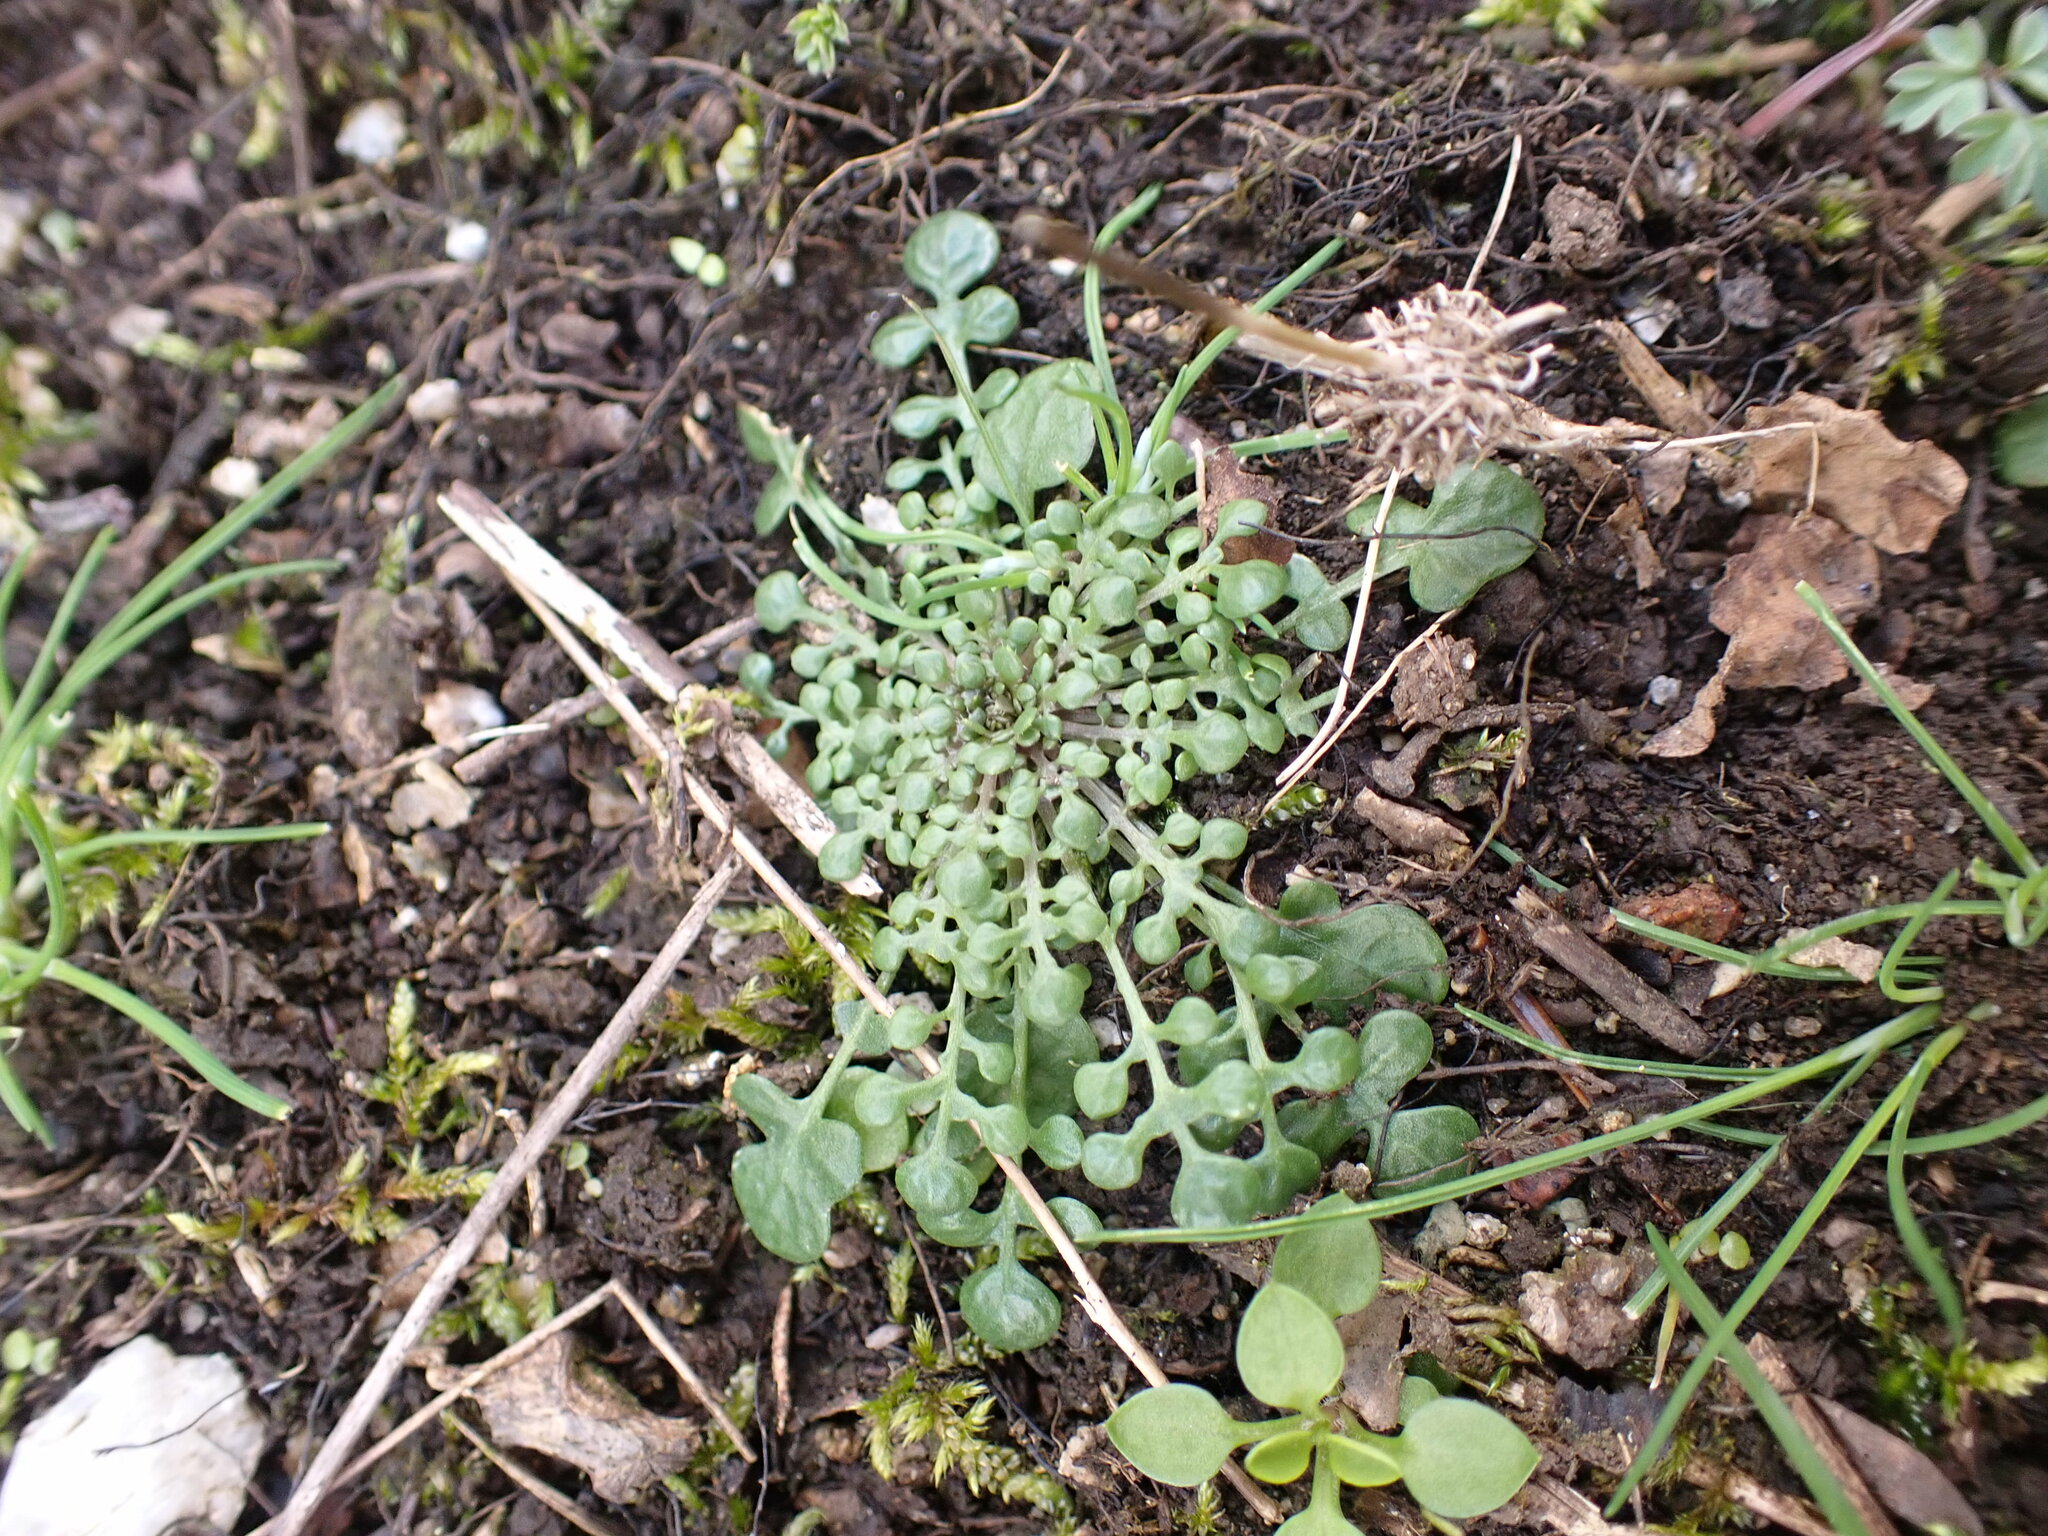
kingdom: Plantae
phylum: Tracheophyta
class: Magnoliopsida
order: Brassicales
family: Brassicaceae
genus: Teesdalia
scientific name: Teesdalia nudicaulis
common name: Shepherd's cress
